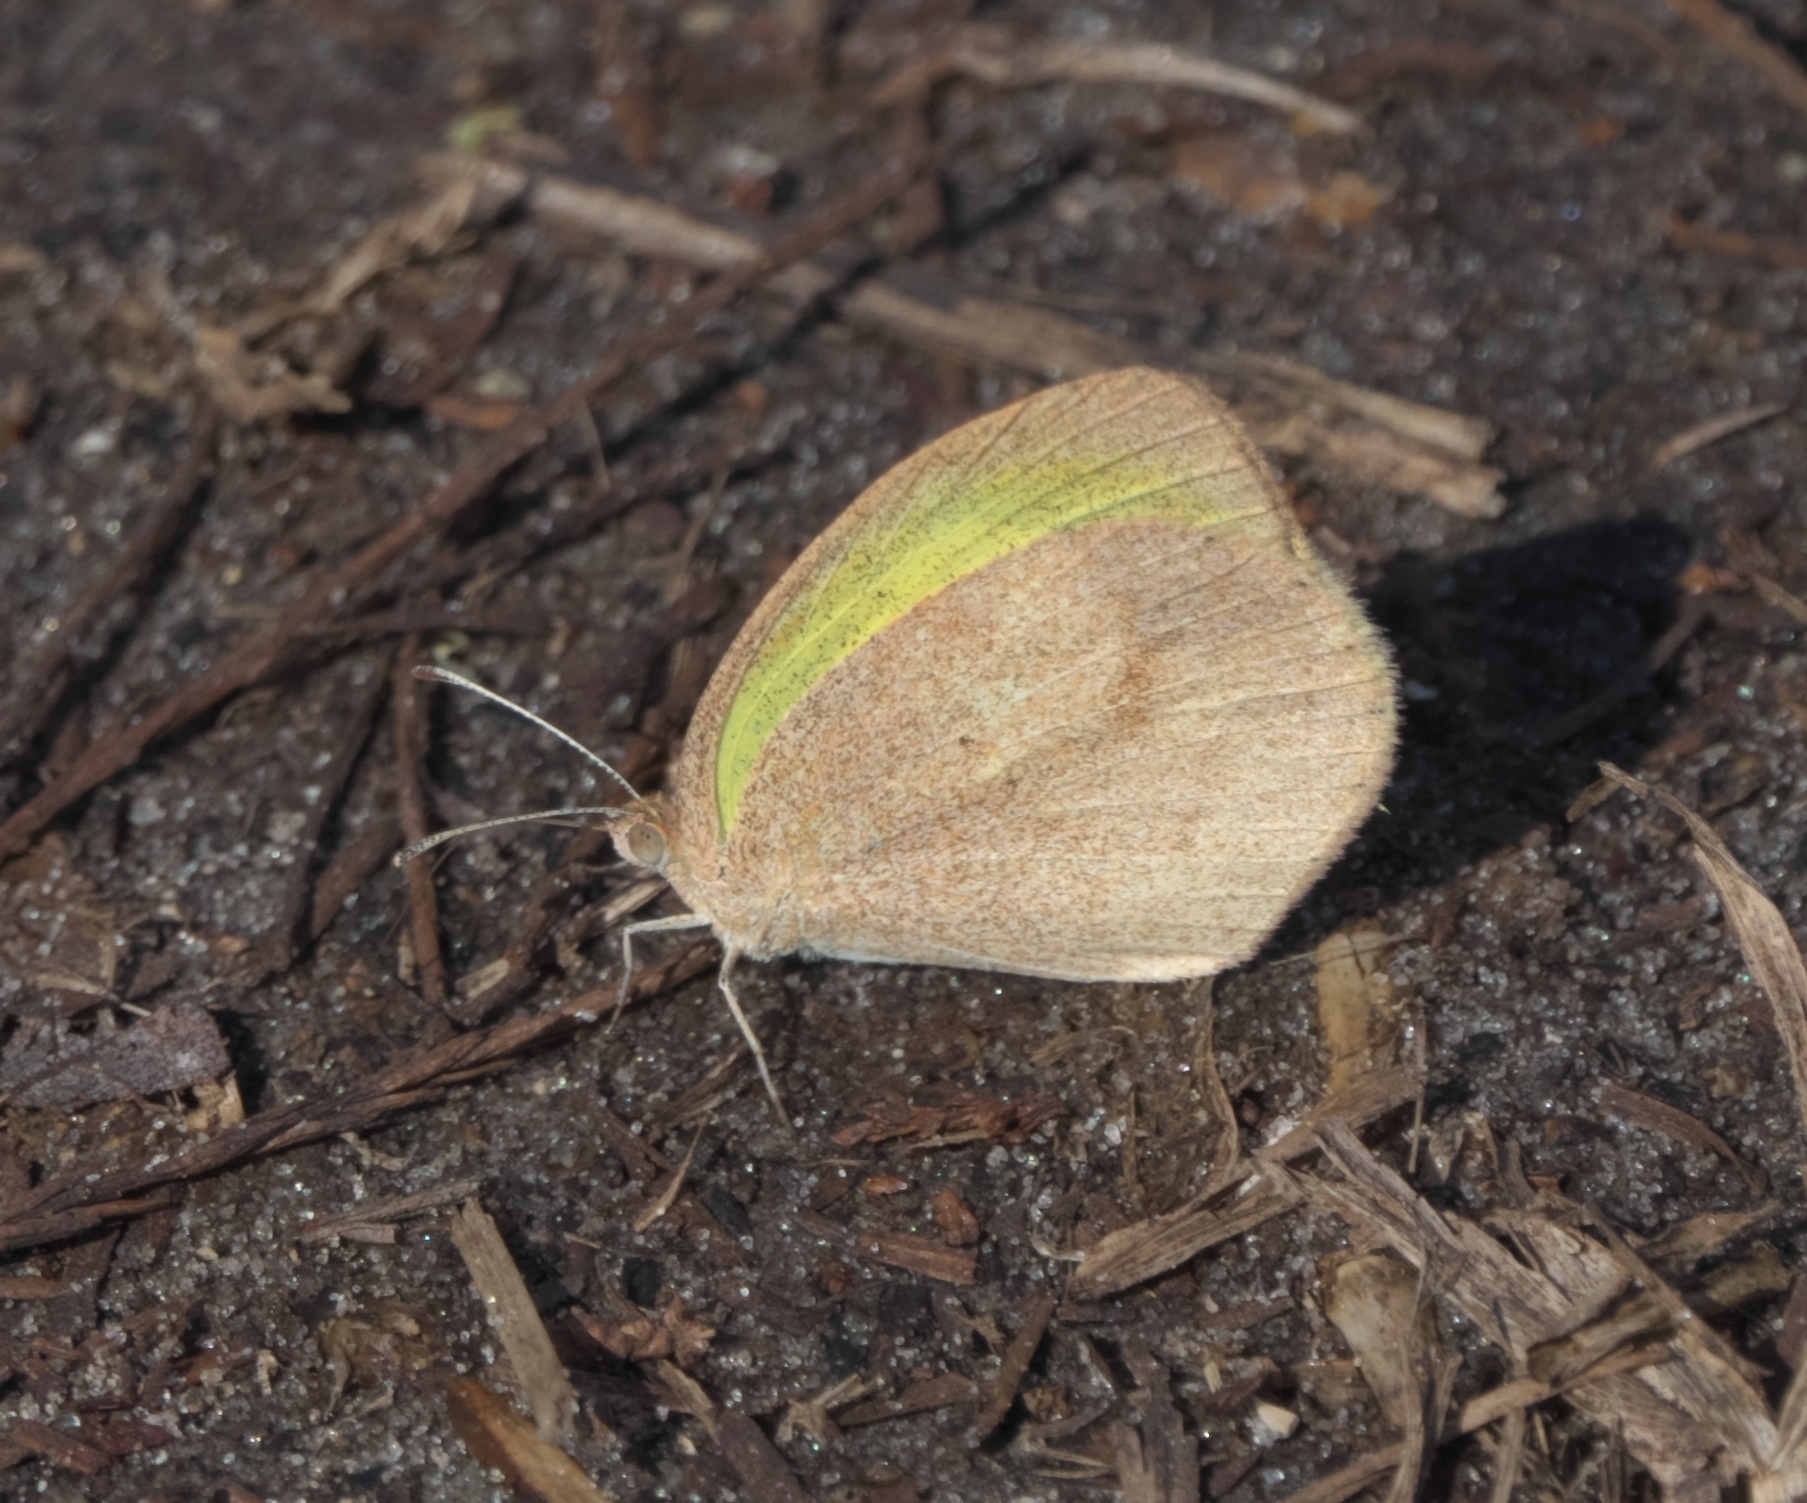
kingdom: Animalia
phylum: Arthropoda
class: Insecta
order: Lepidoptera
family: Pieridae
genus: Eurema
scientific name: Eurema daira
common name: Barred sulphur
